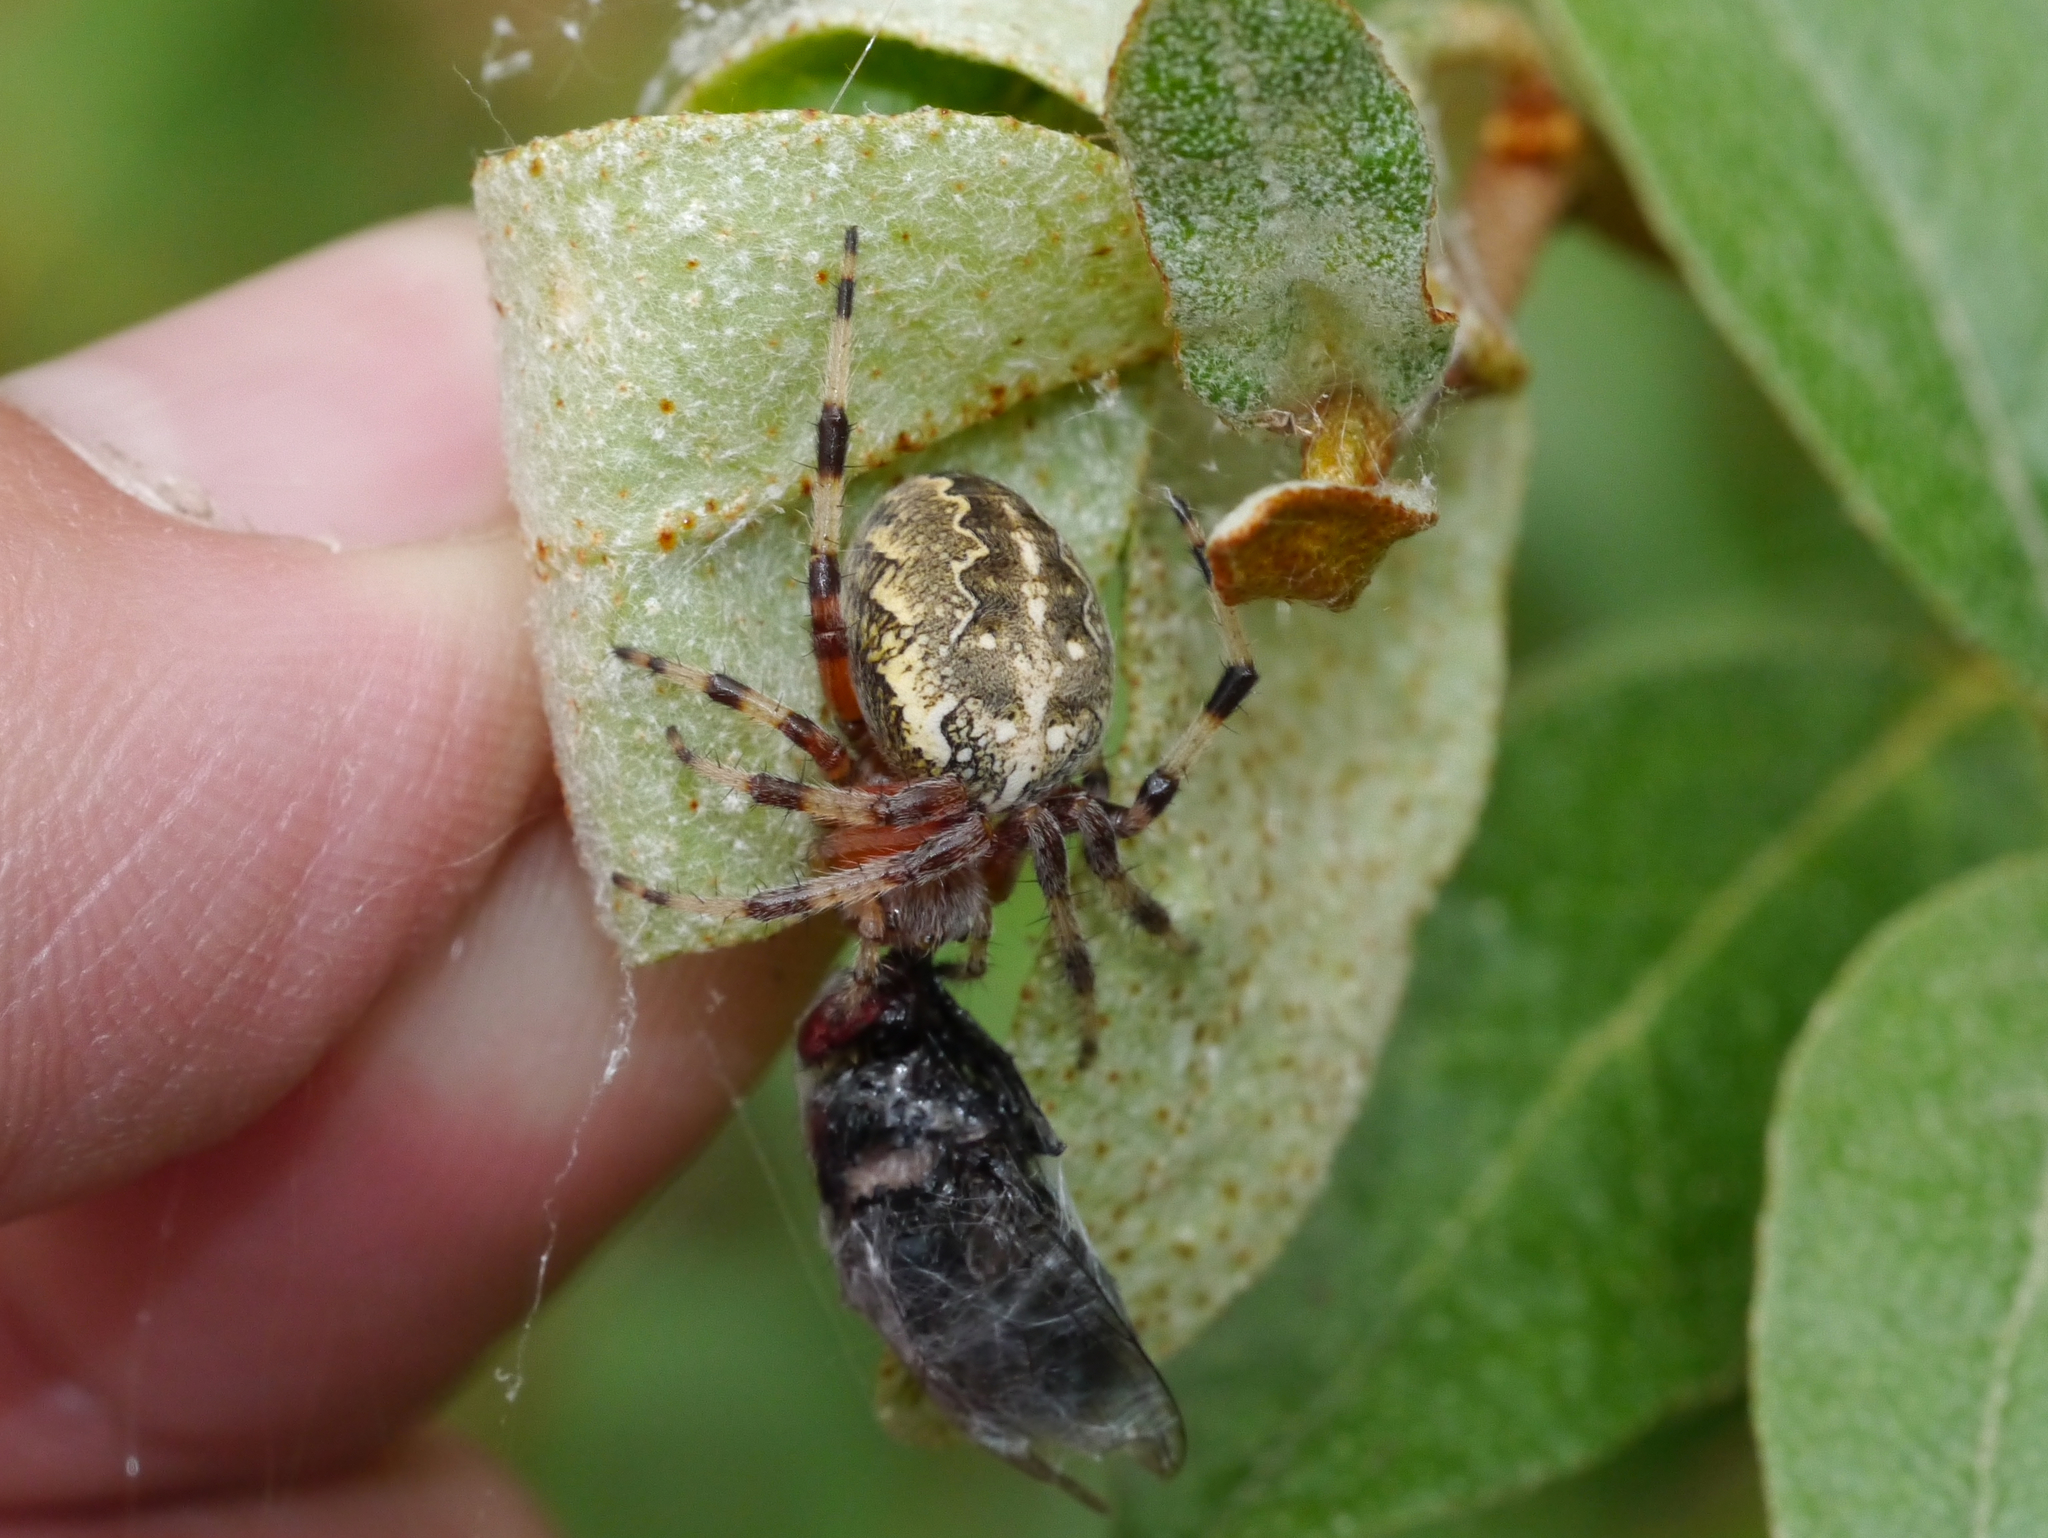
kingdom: Animalia
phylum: Arthropoda
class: Arachnida
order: Araneae
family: Araneidae
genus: Araneus
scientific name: Araneus marmoreus
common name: Marbled orbweaver
